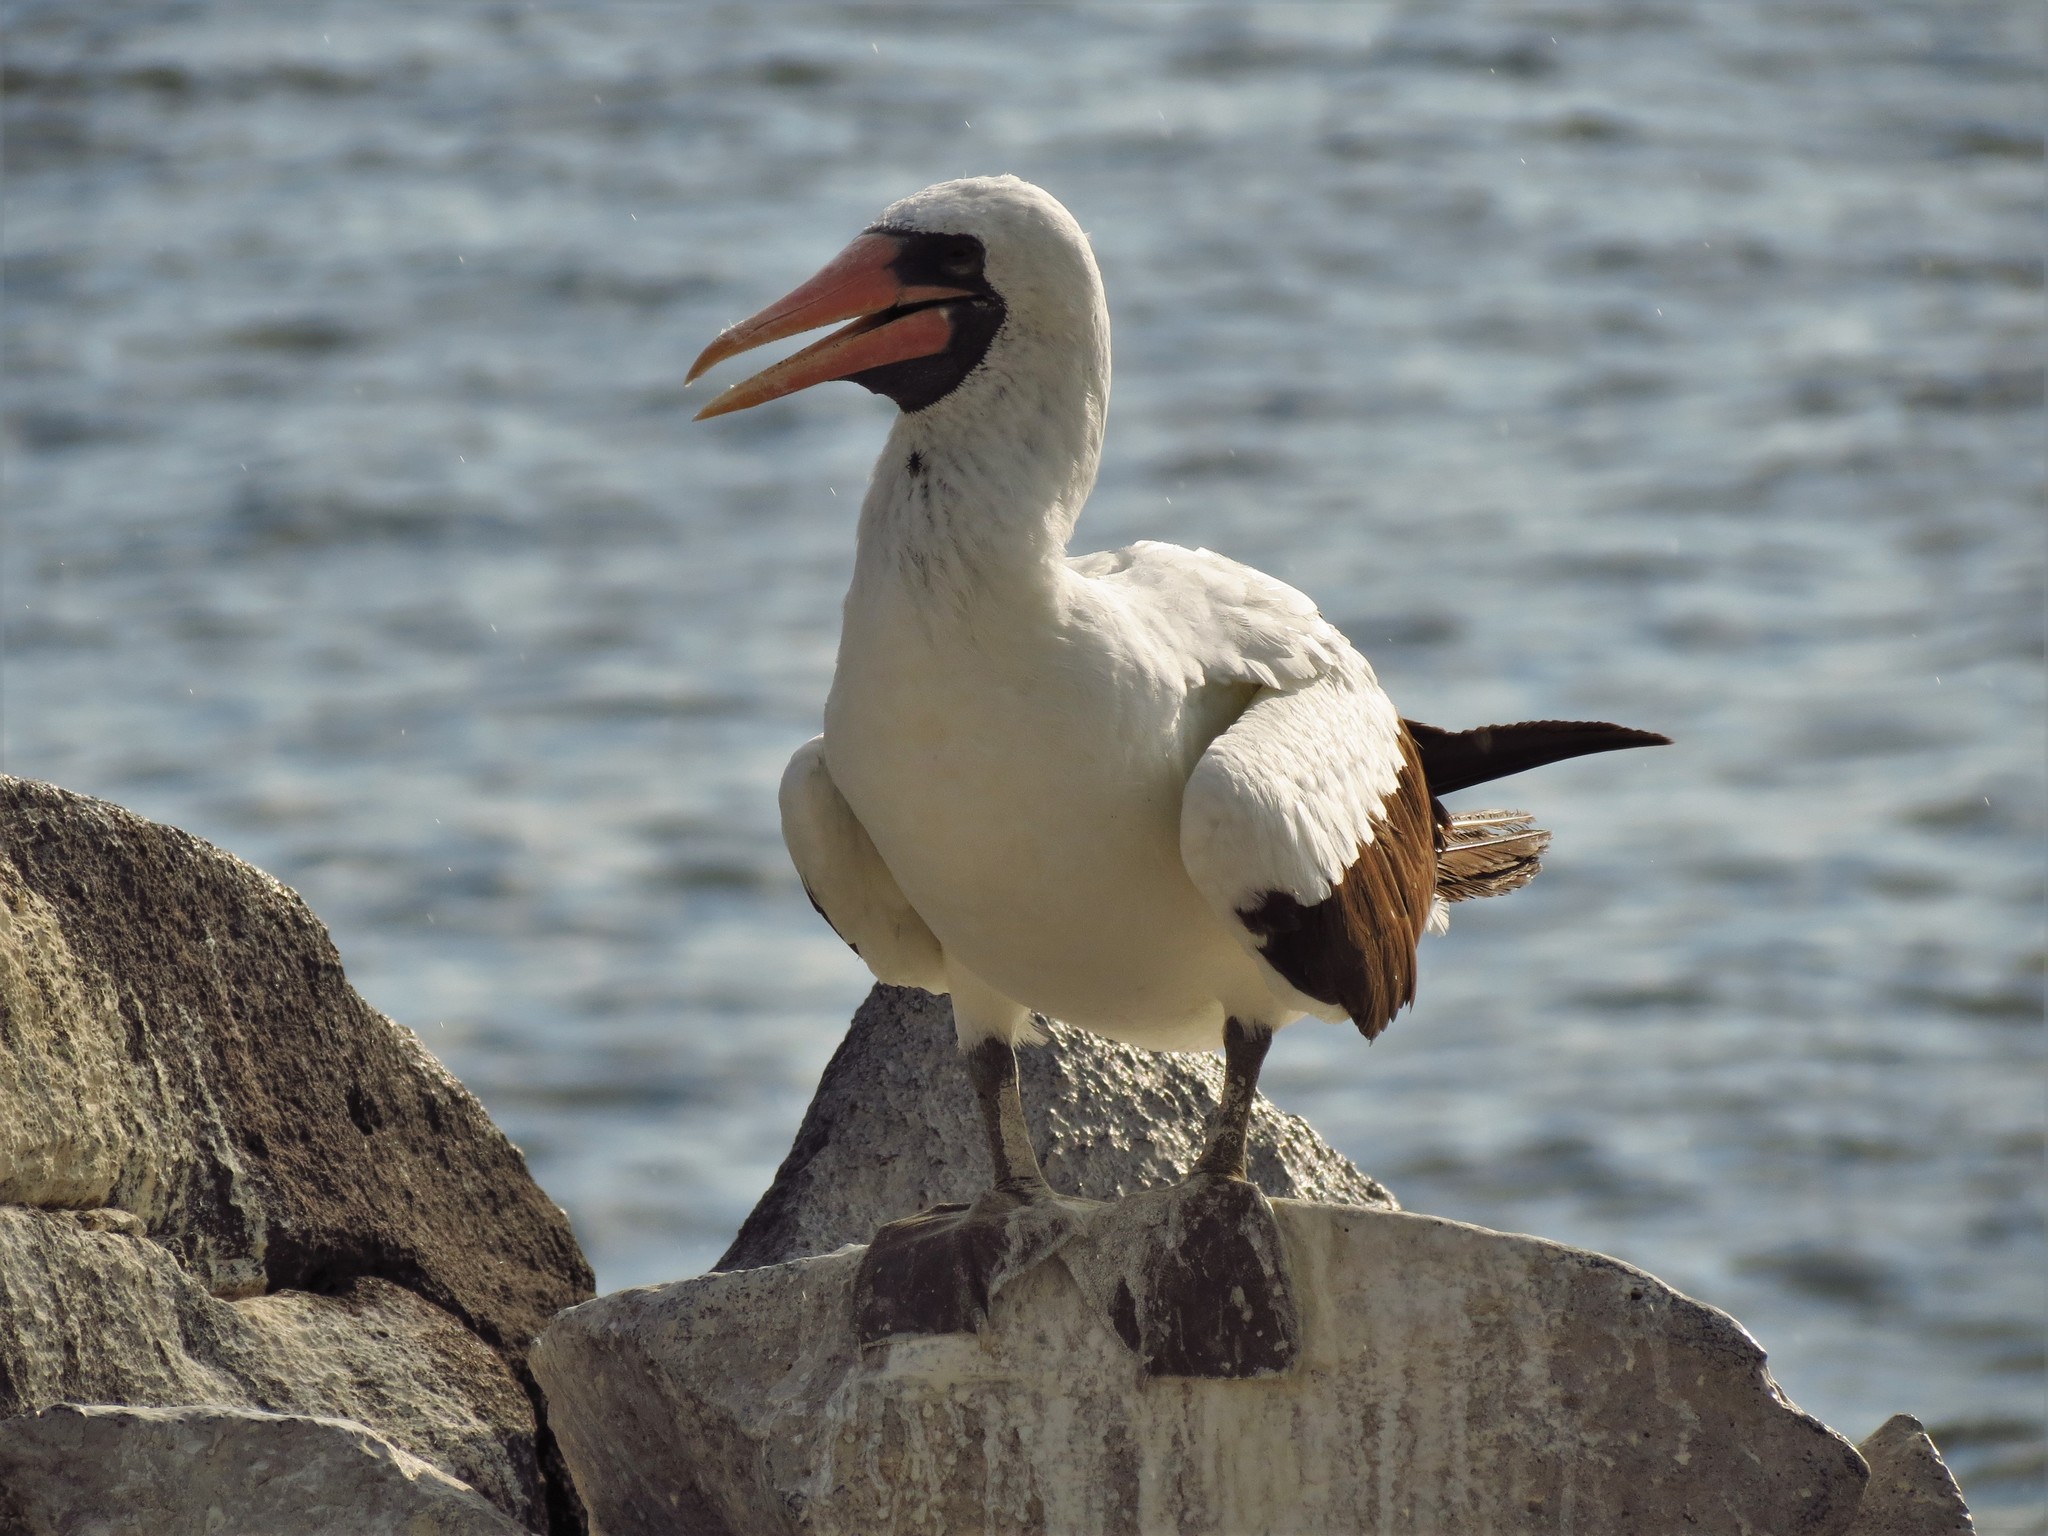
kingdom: Animalia
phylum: Chordata
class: Aves
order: Suliformes
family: Sulidae
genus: Sula
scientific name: Sula granti
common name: Nazca booby
